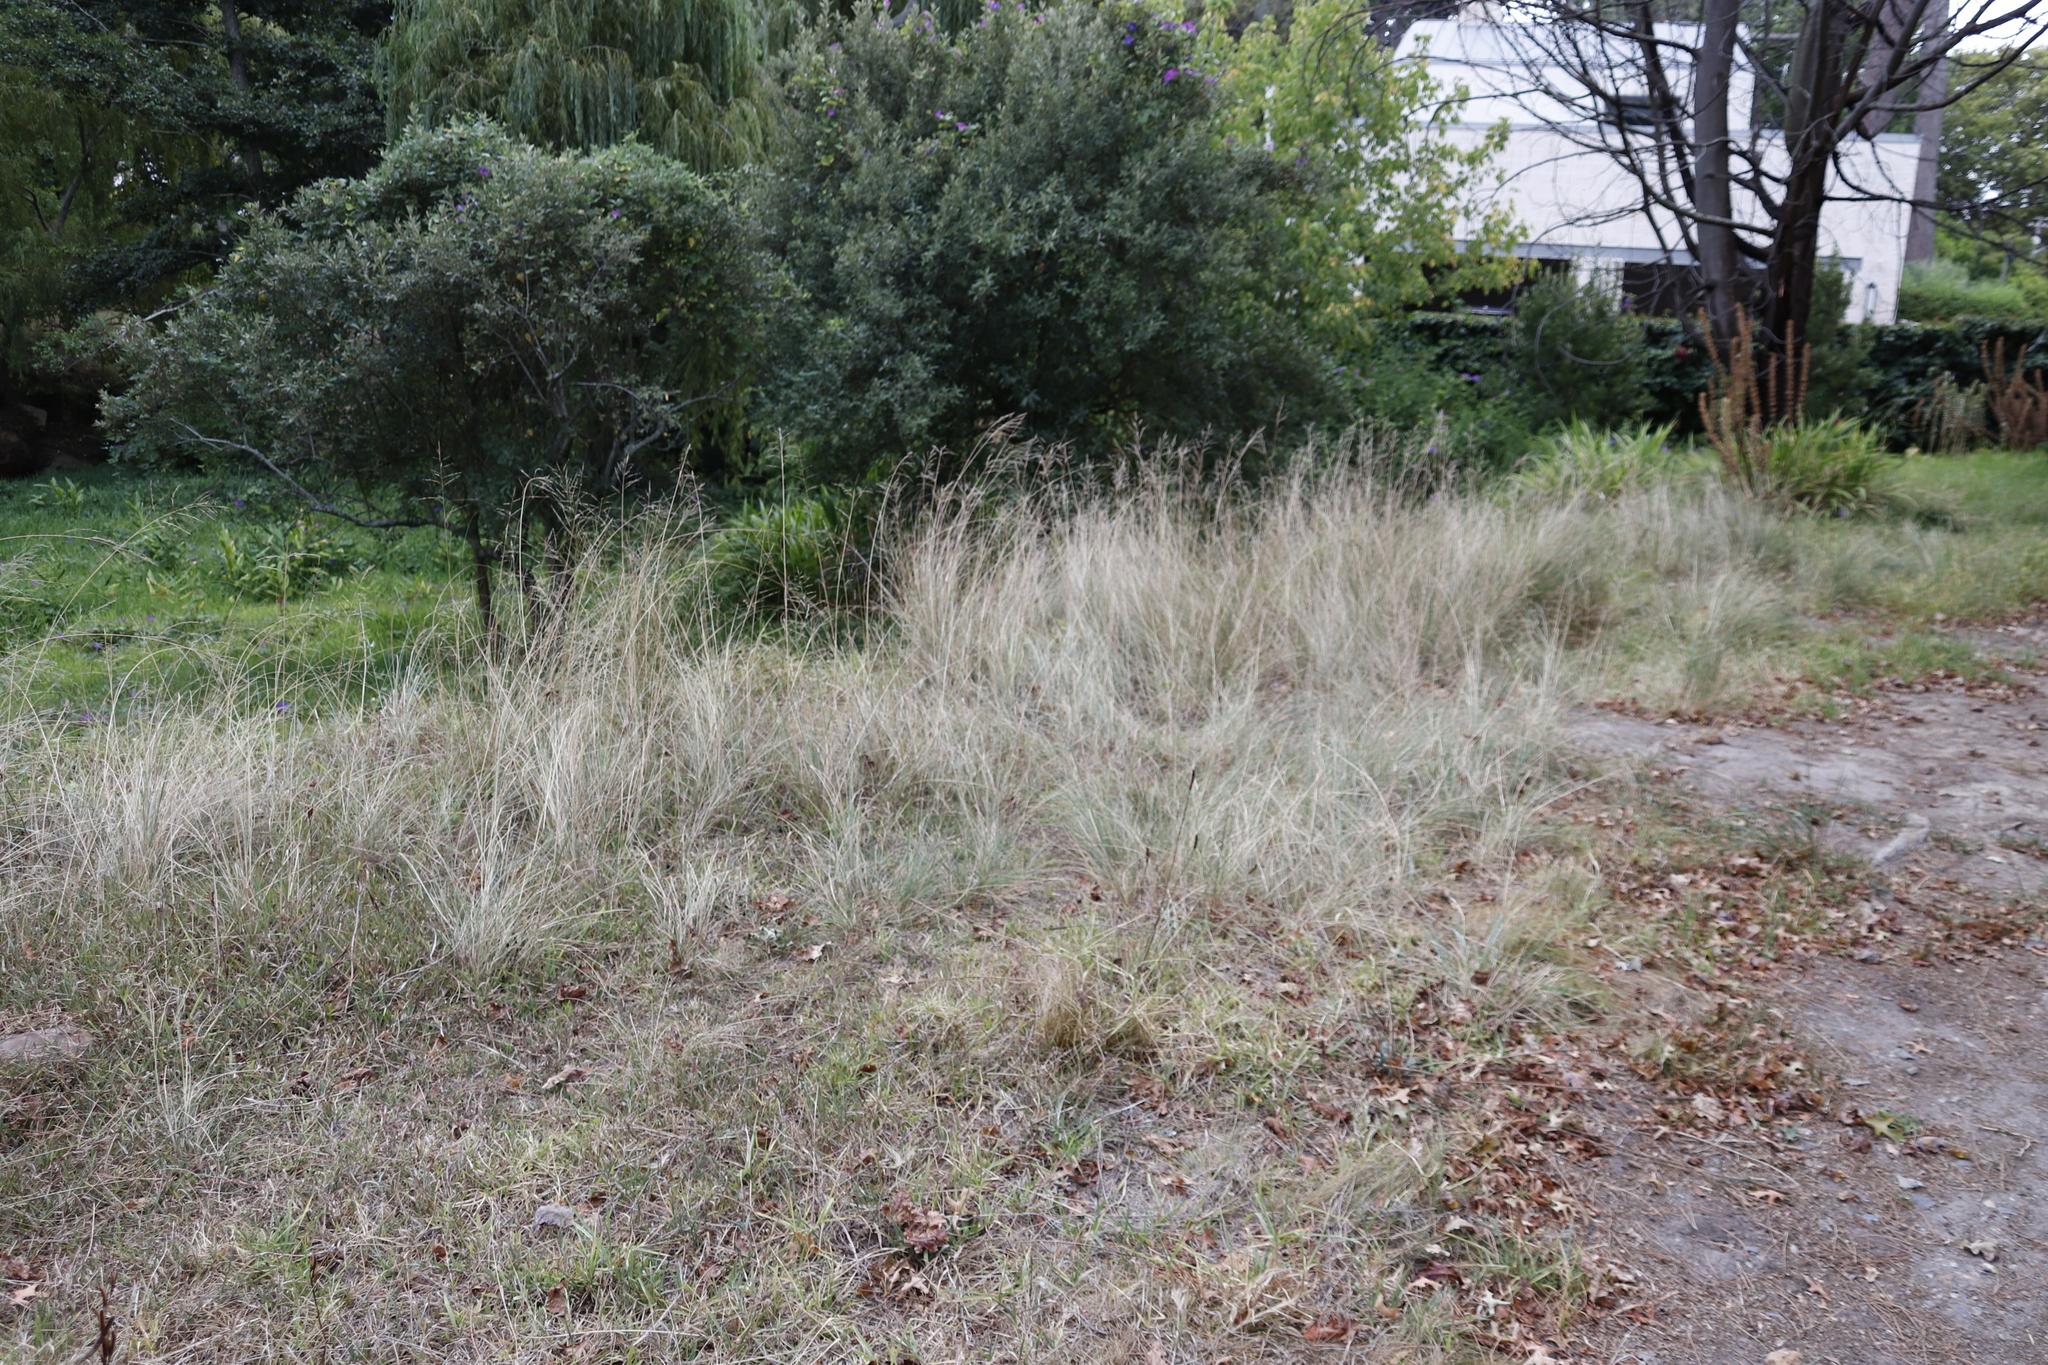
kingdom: Plantae
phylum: Tracheophyta
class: Liliopsida
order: Poales
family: Poaceae
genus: Eragrostis
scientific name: Eragrostis curvula
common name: African love-grass
